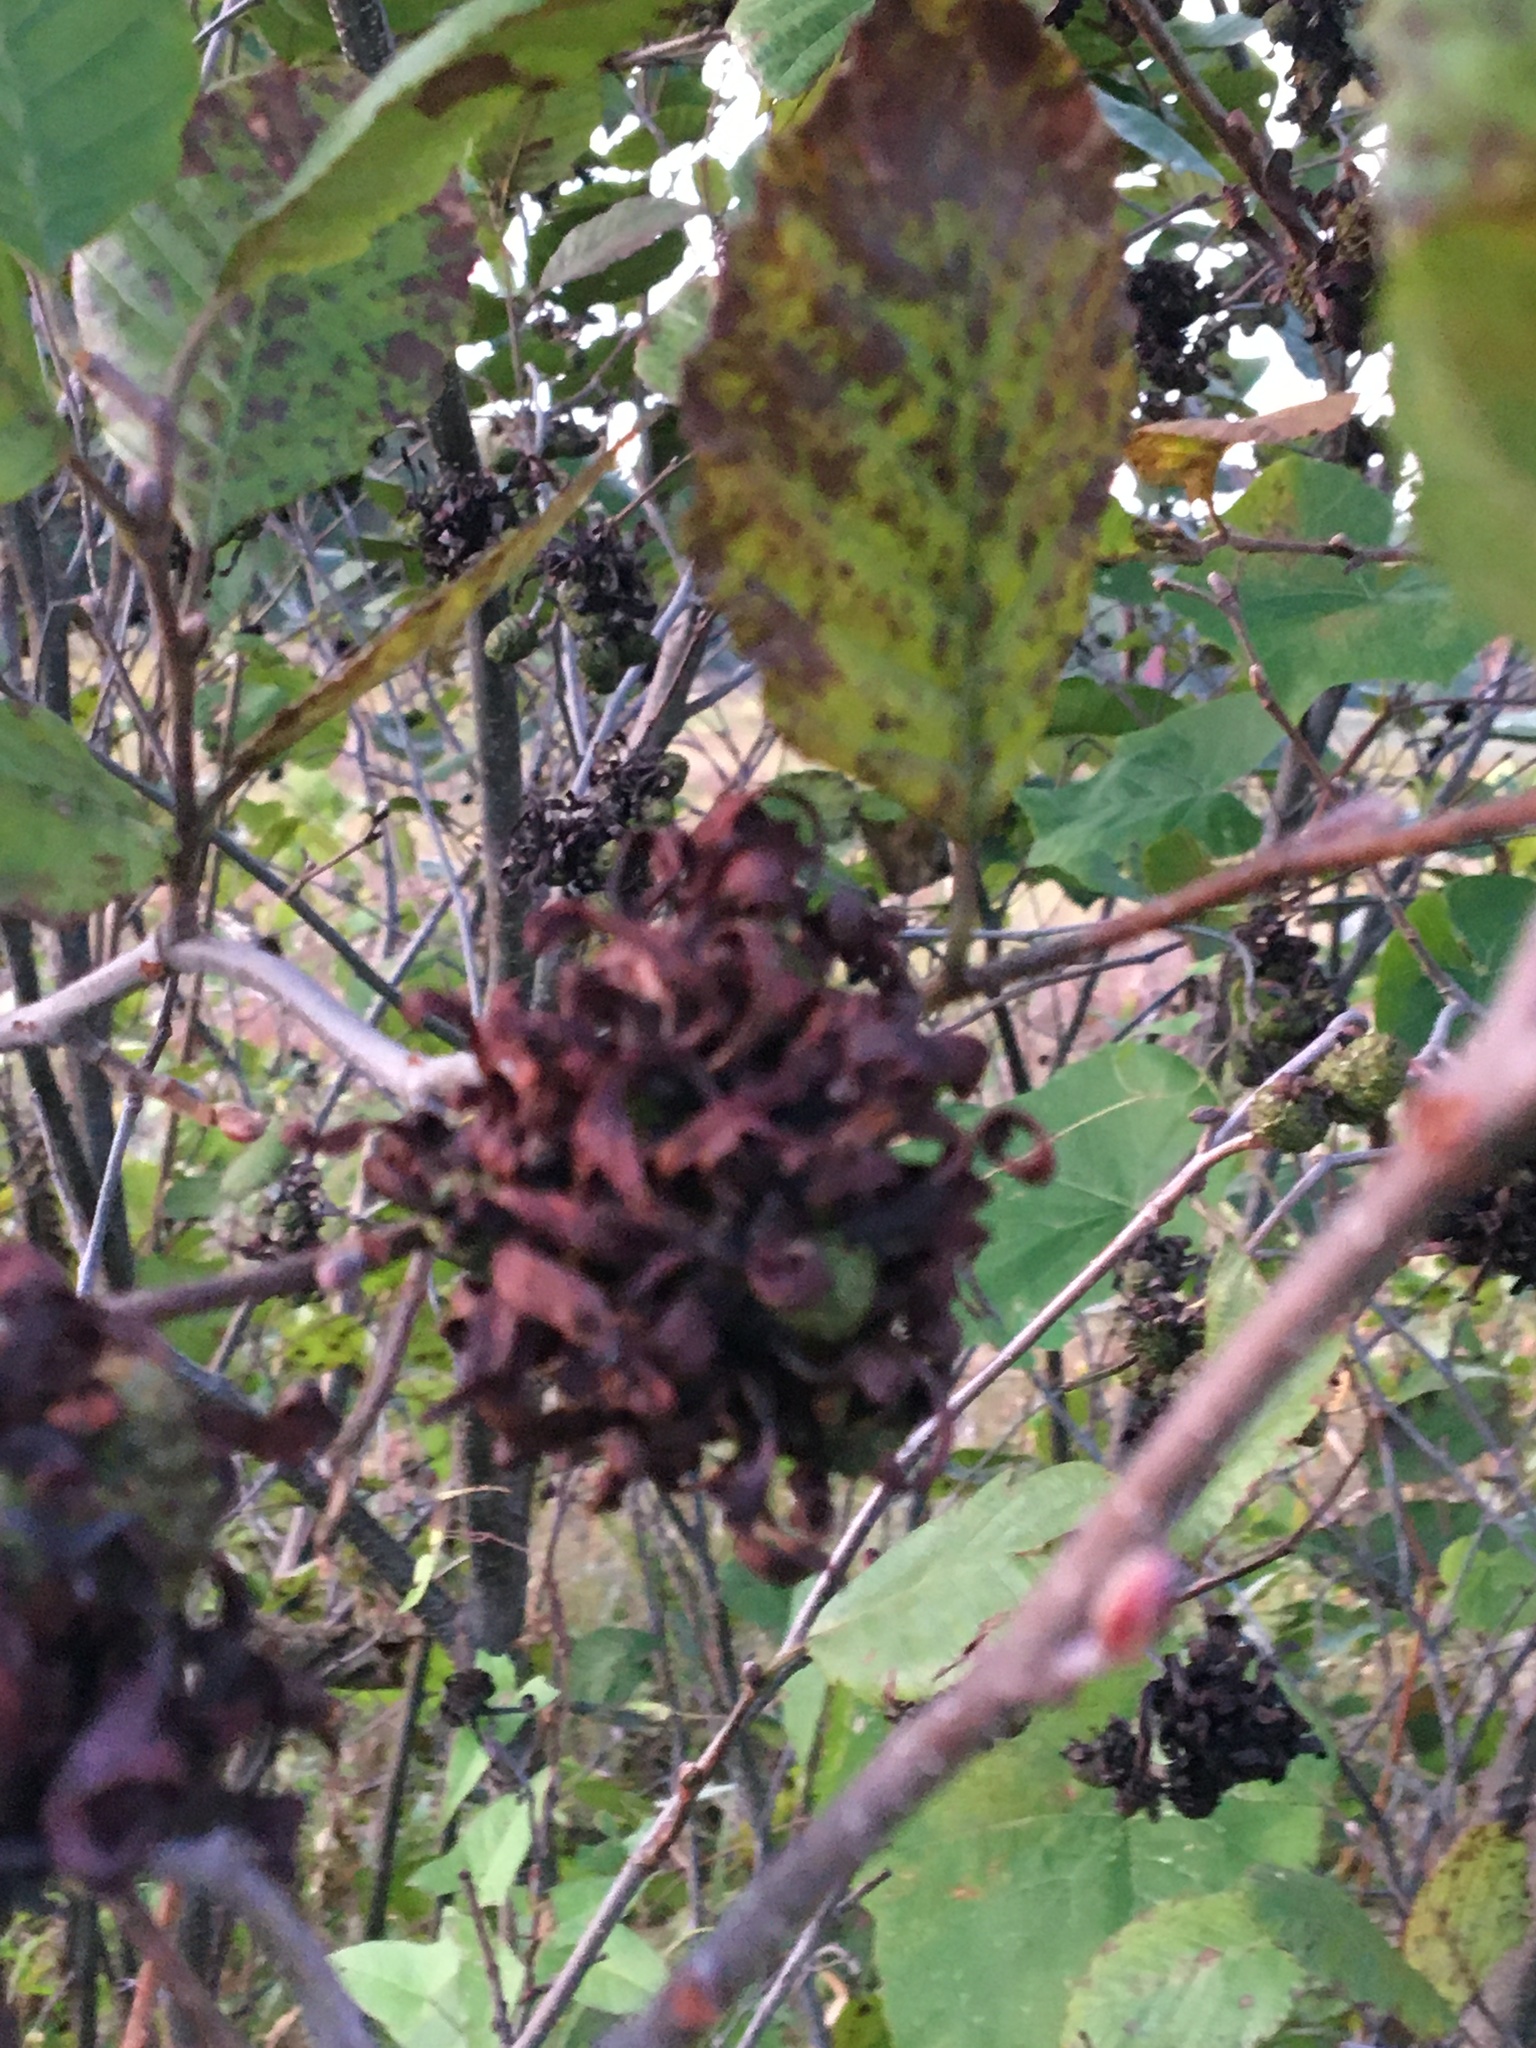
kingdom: Fungi
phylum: Ascomycota
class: Taphrinomycetes
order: Taphrinales
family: Taphrinaceae
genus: Taphrina
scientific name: Taphrina robinsoniana
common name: Eastern american alder tongue gall fungus
